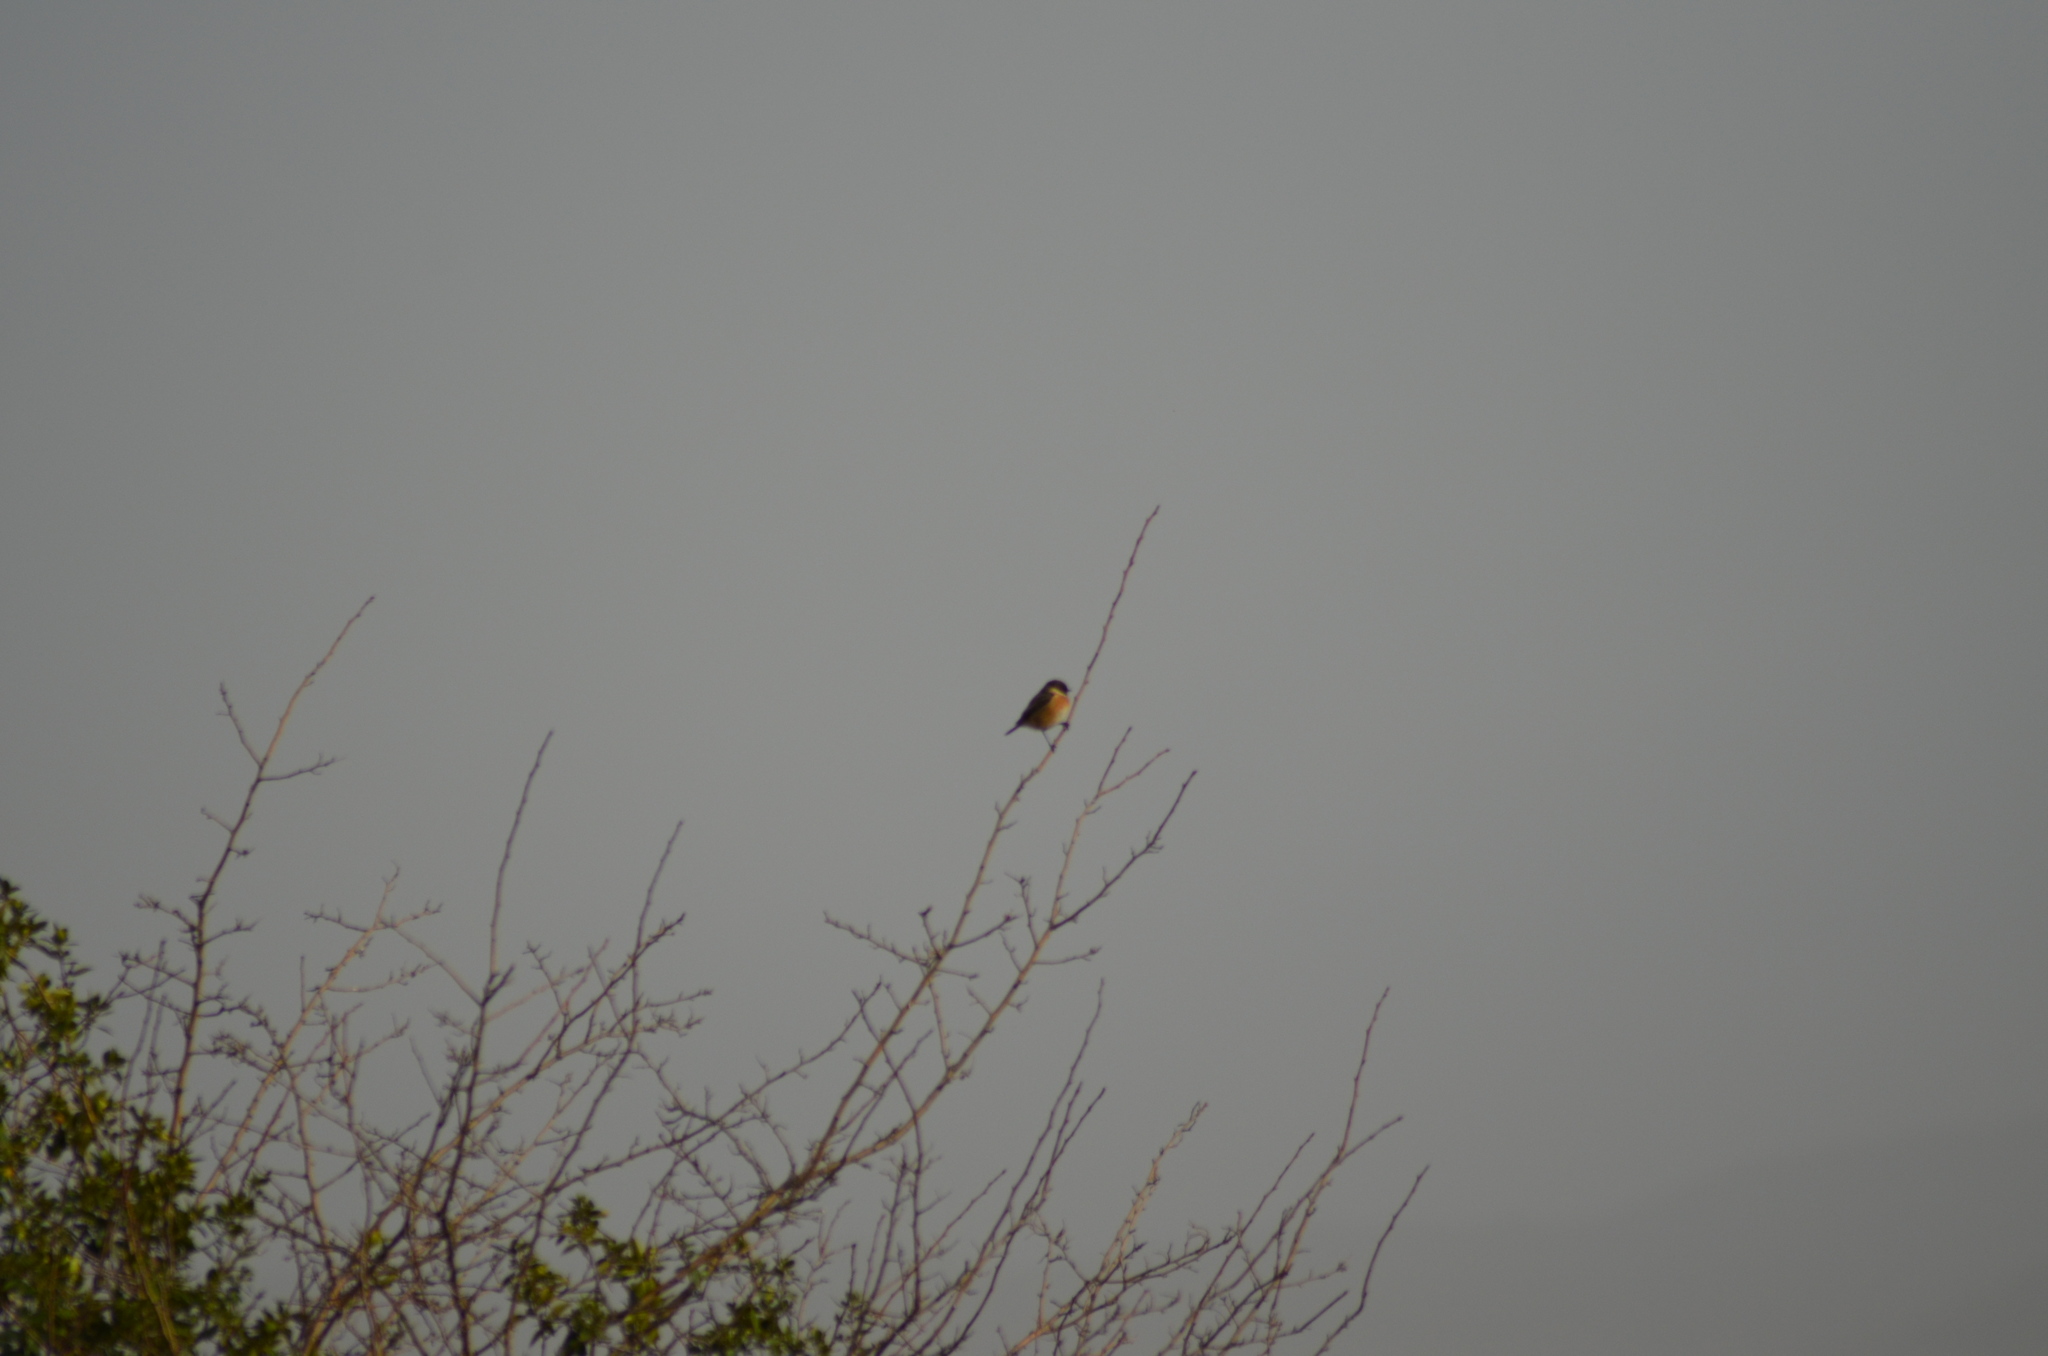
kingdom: Animalia
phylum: Chordata
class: Aves
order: Passeriformes
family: Muscicapidae
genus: Saxicola
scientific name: Saxicola rubicola
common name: European stonechat
